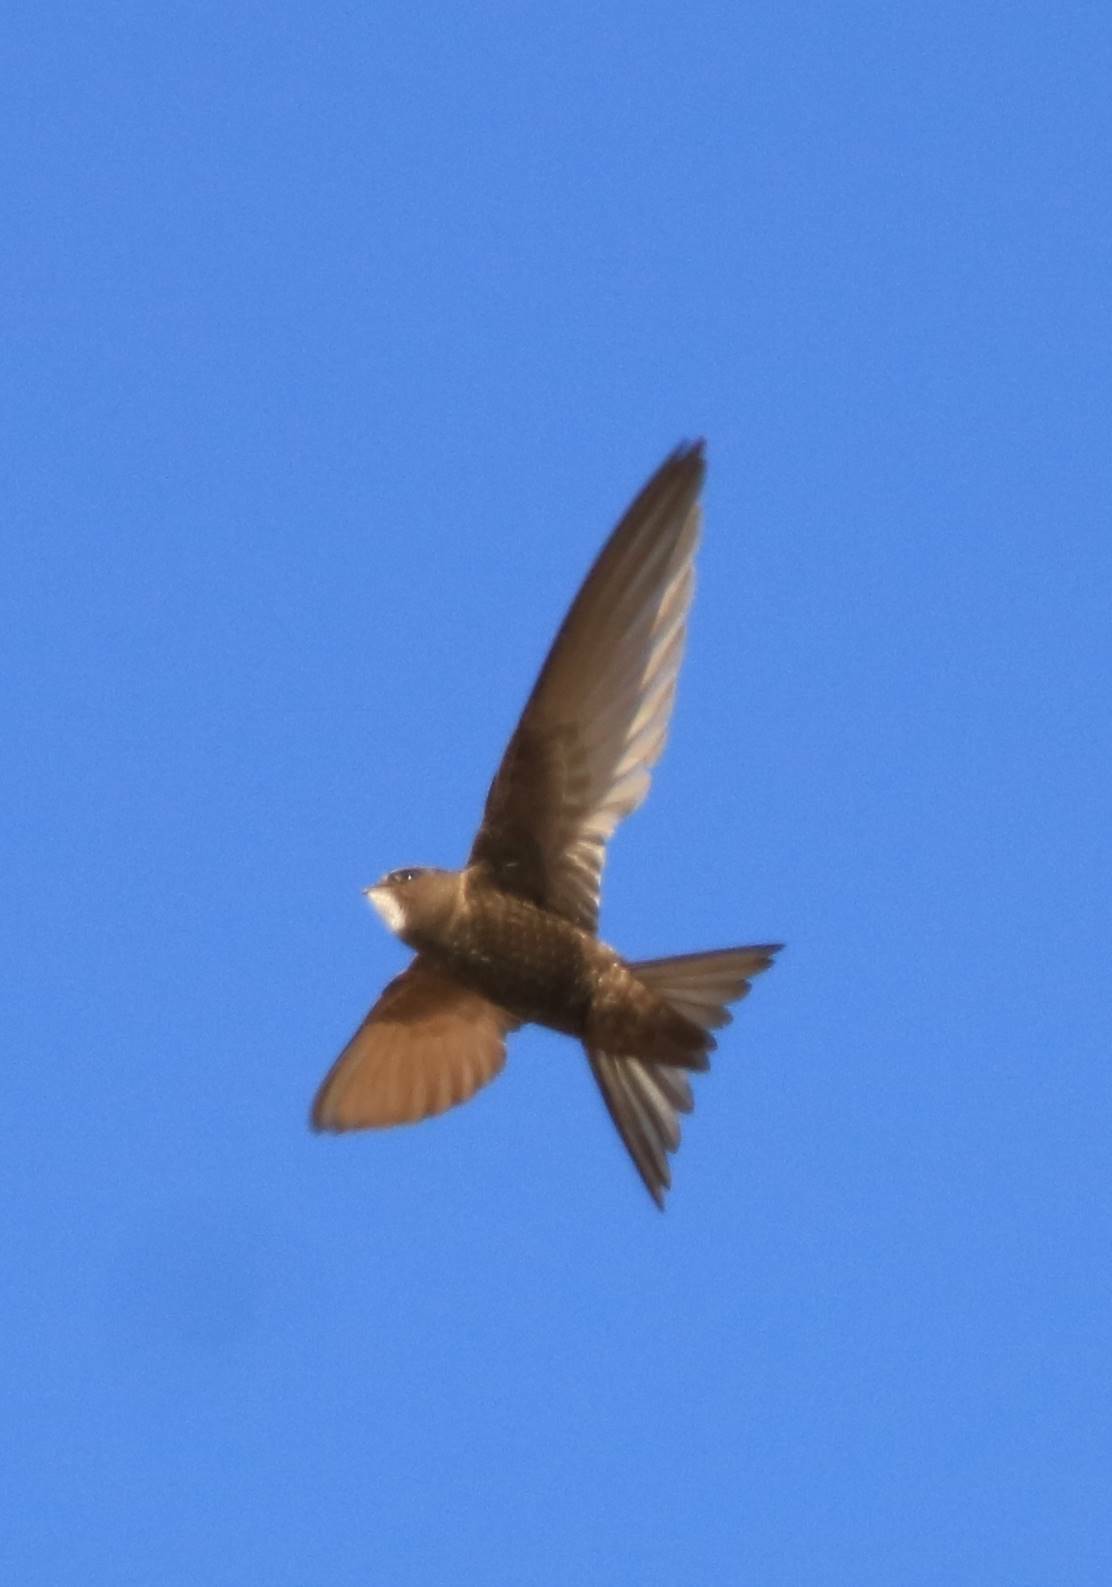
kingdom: Animalia
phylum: Chordata
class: Aves
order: Apodiformes
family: Apodidae
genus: Apus
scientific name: Apus apus
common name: Common swift
